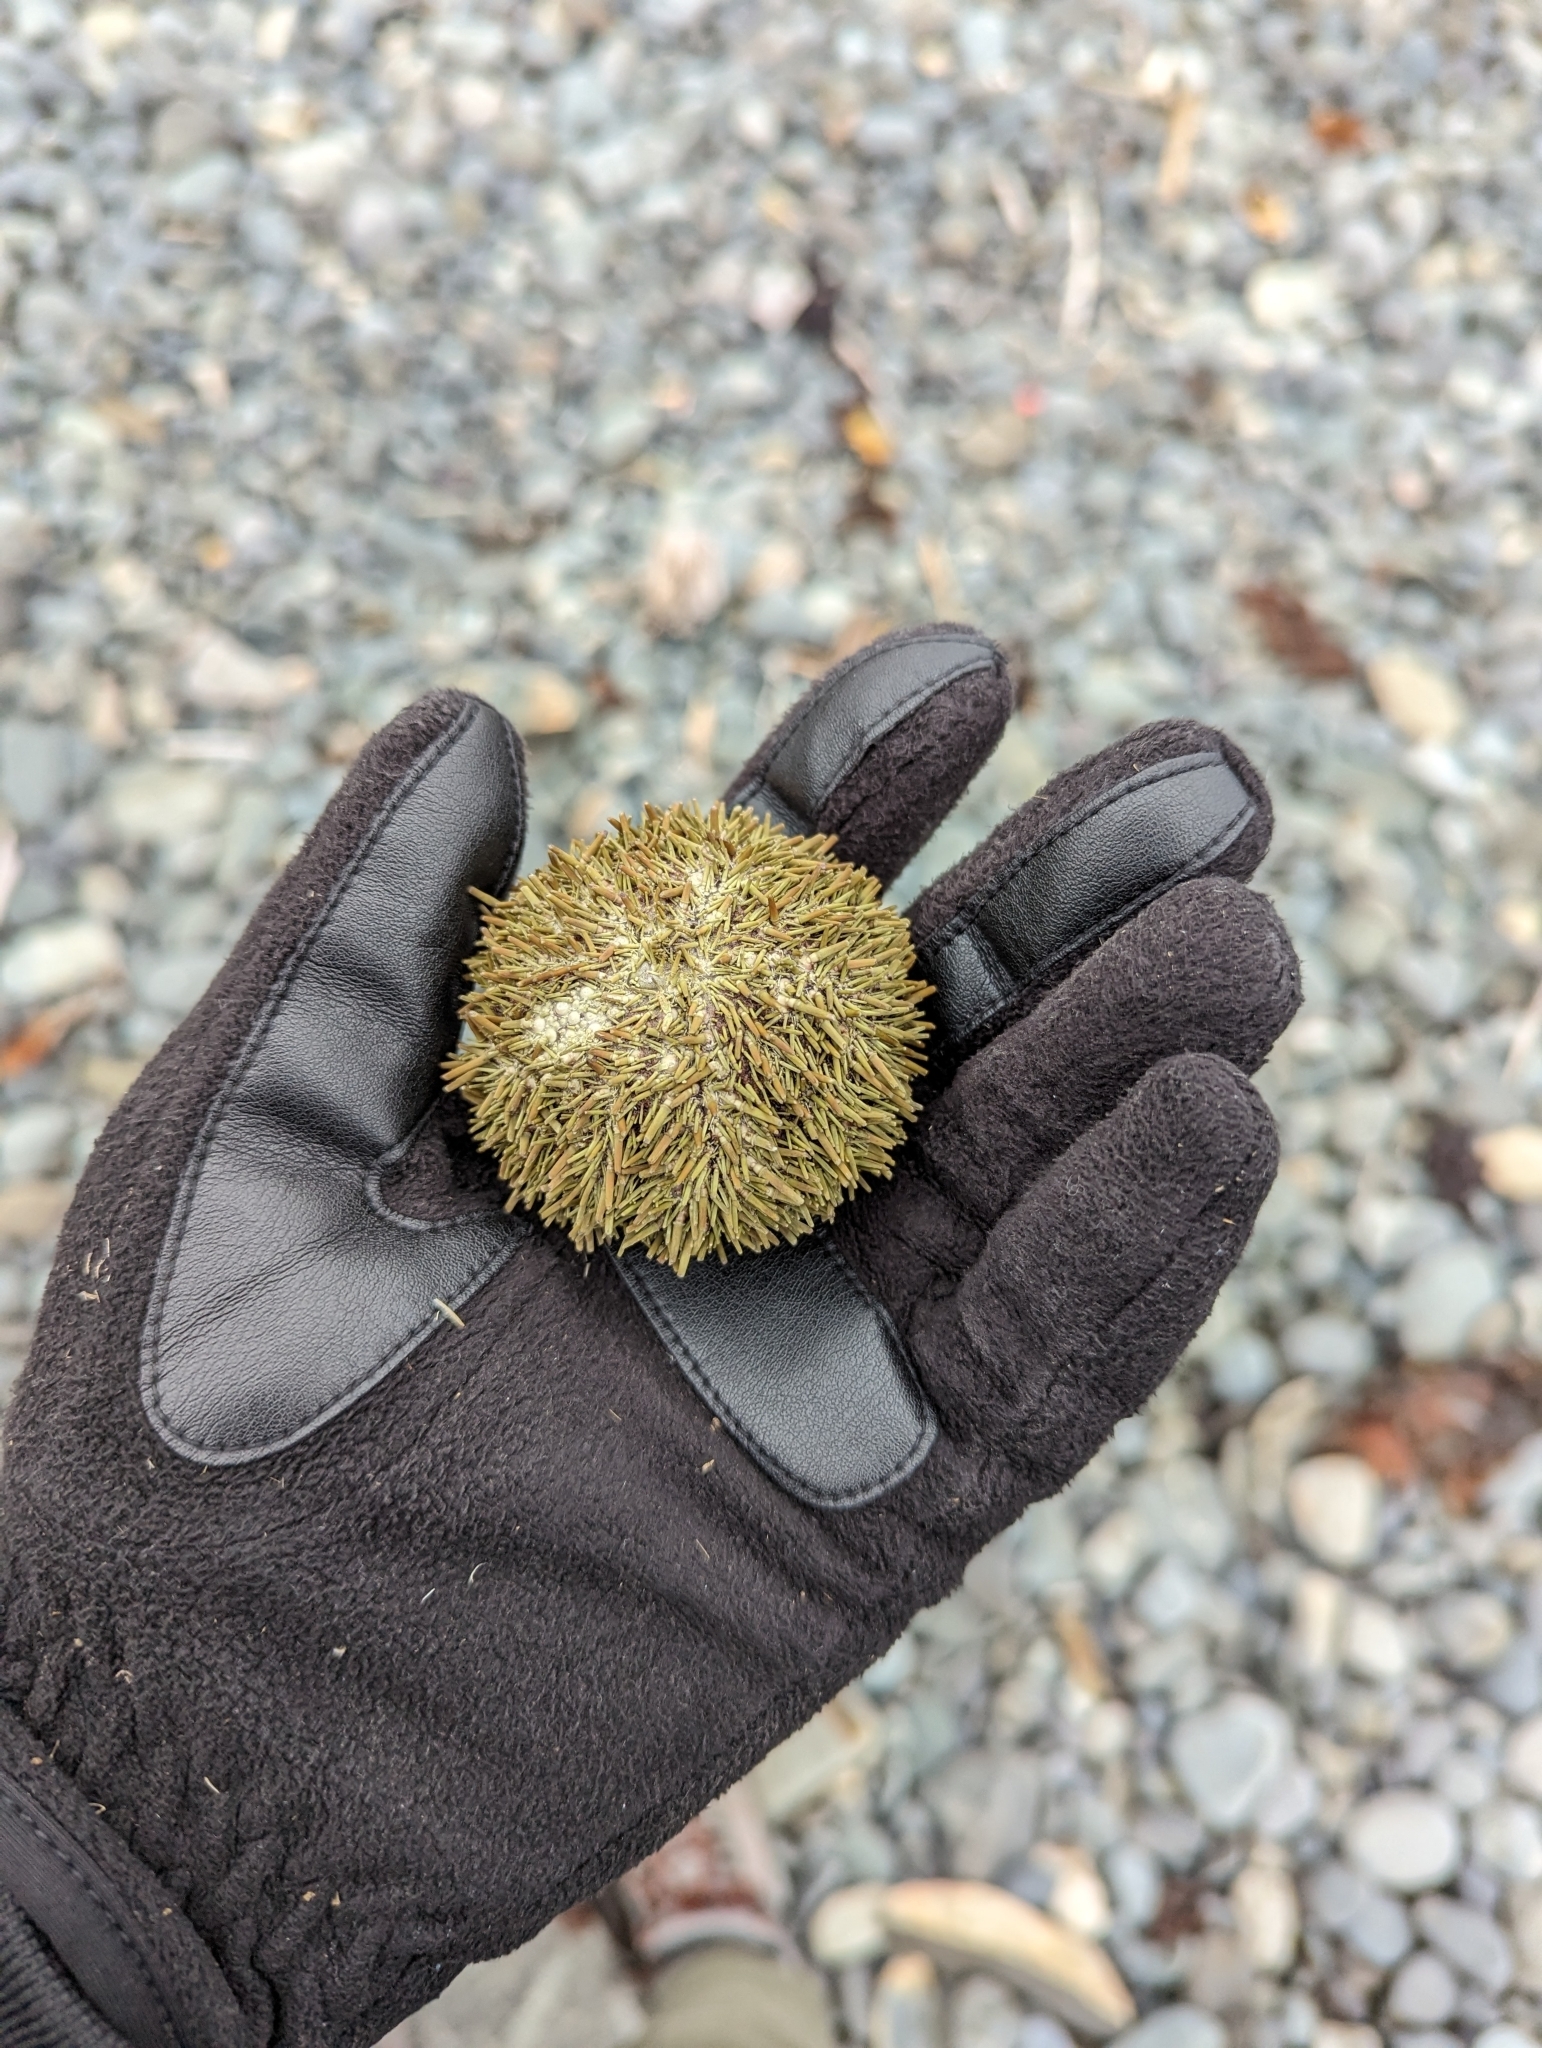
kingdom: Animalia
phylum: Echinodermata
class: Echinoidea
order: Camarodonta
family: Strongylocentrotidae
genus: Strongylocentrotus
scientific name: Strongylocentrotus droebachiensis
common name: Northern sea urchin
